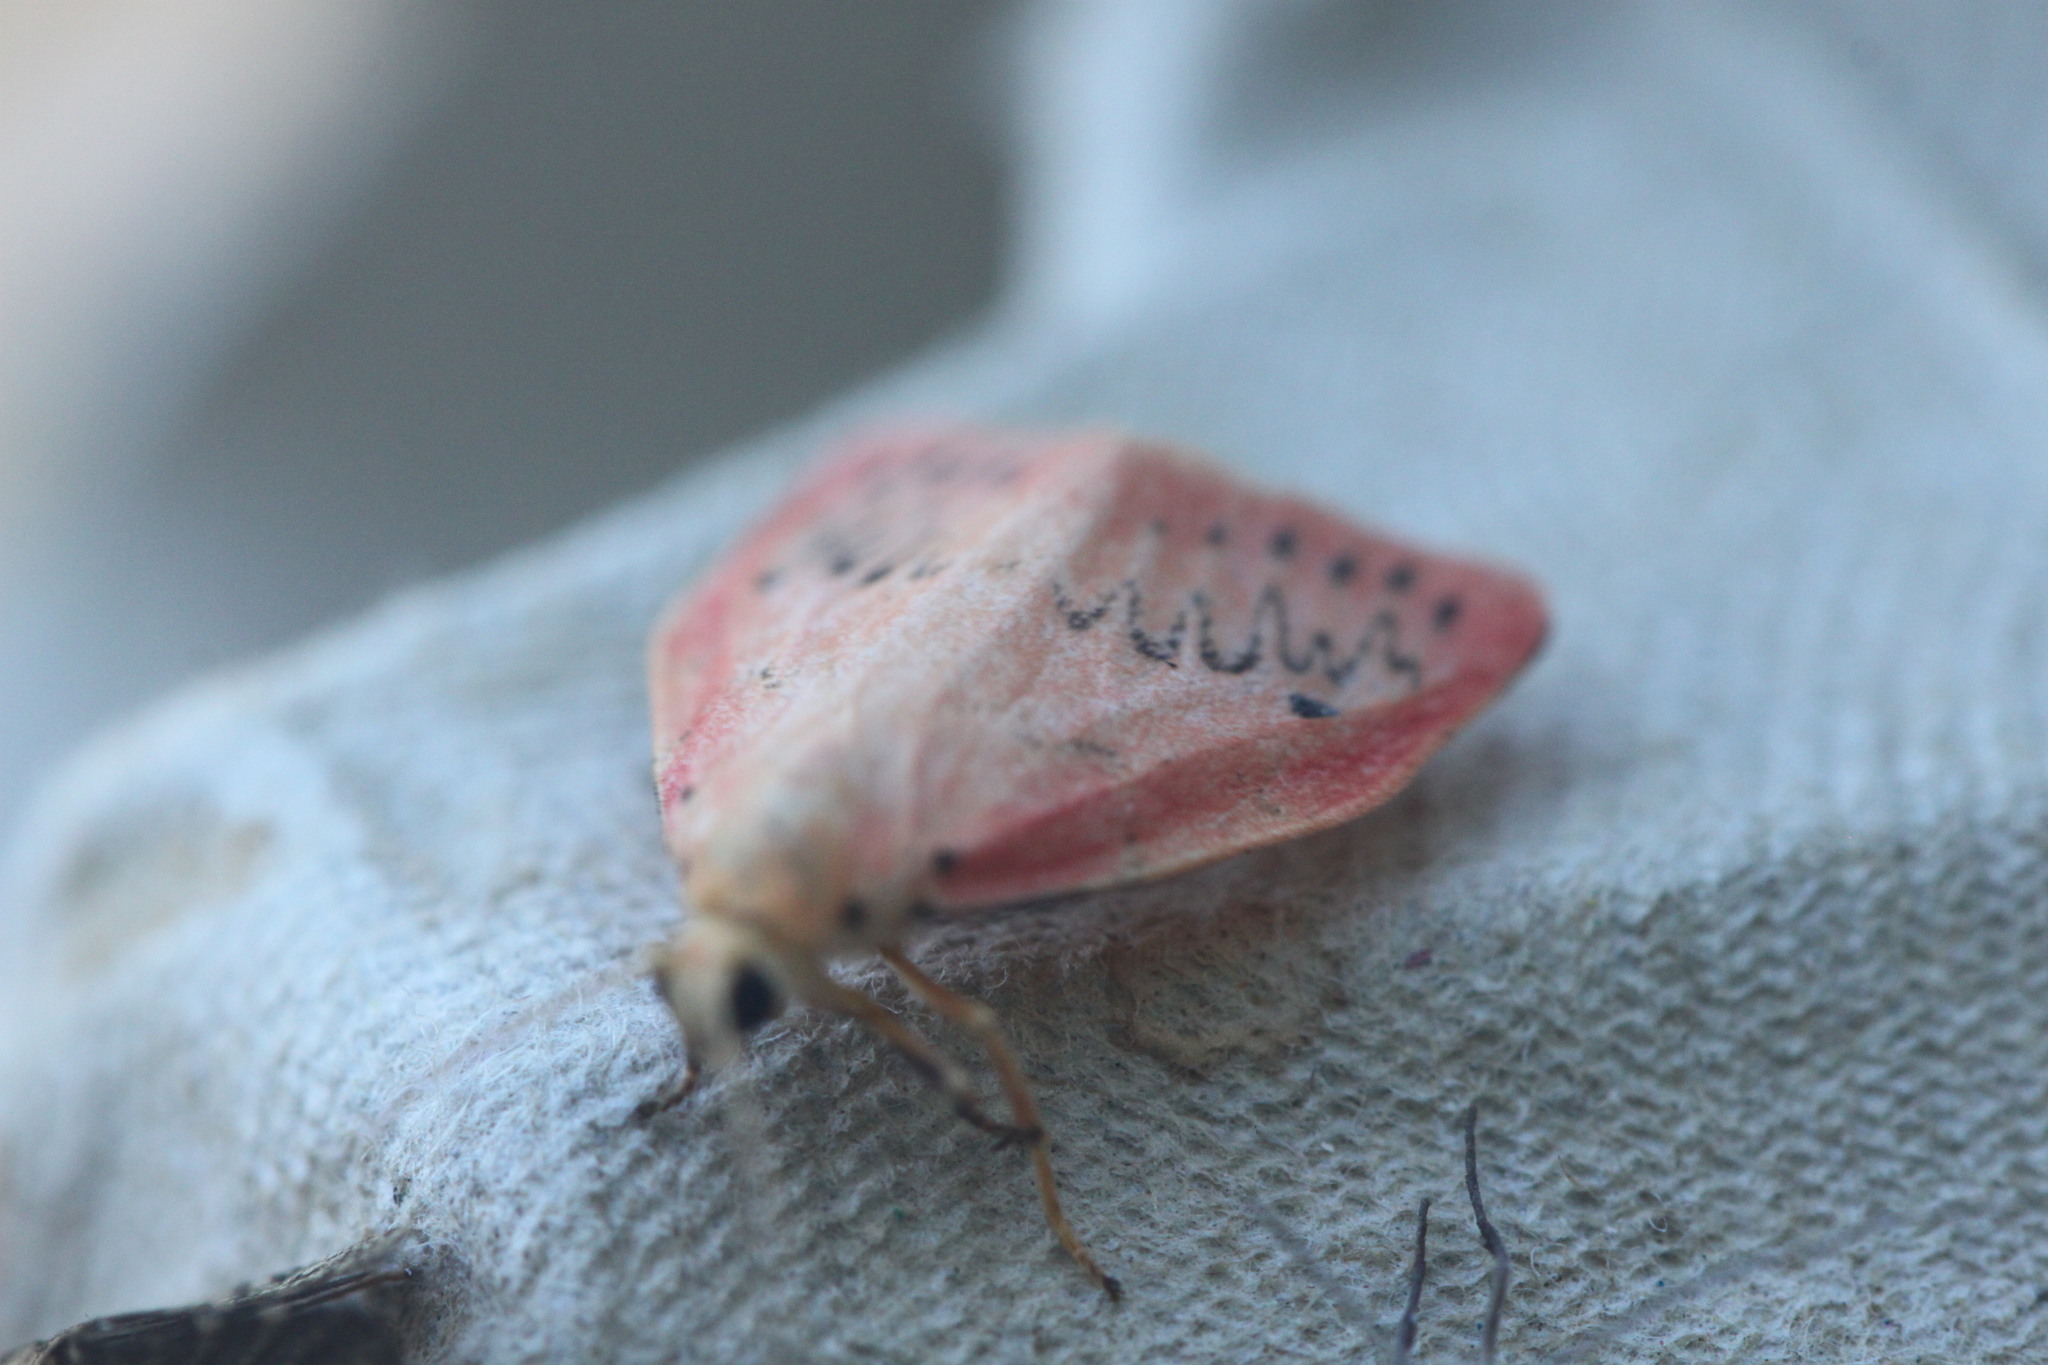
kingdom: Animalia
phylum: Arthropoda
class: Insecta
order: Lepidoptera
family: Erebidae
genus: Miltochrista
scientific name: Miltochrista miniata
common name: Rosy footman
